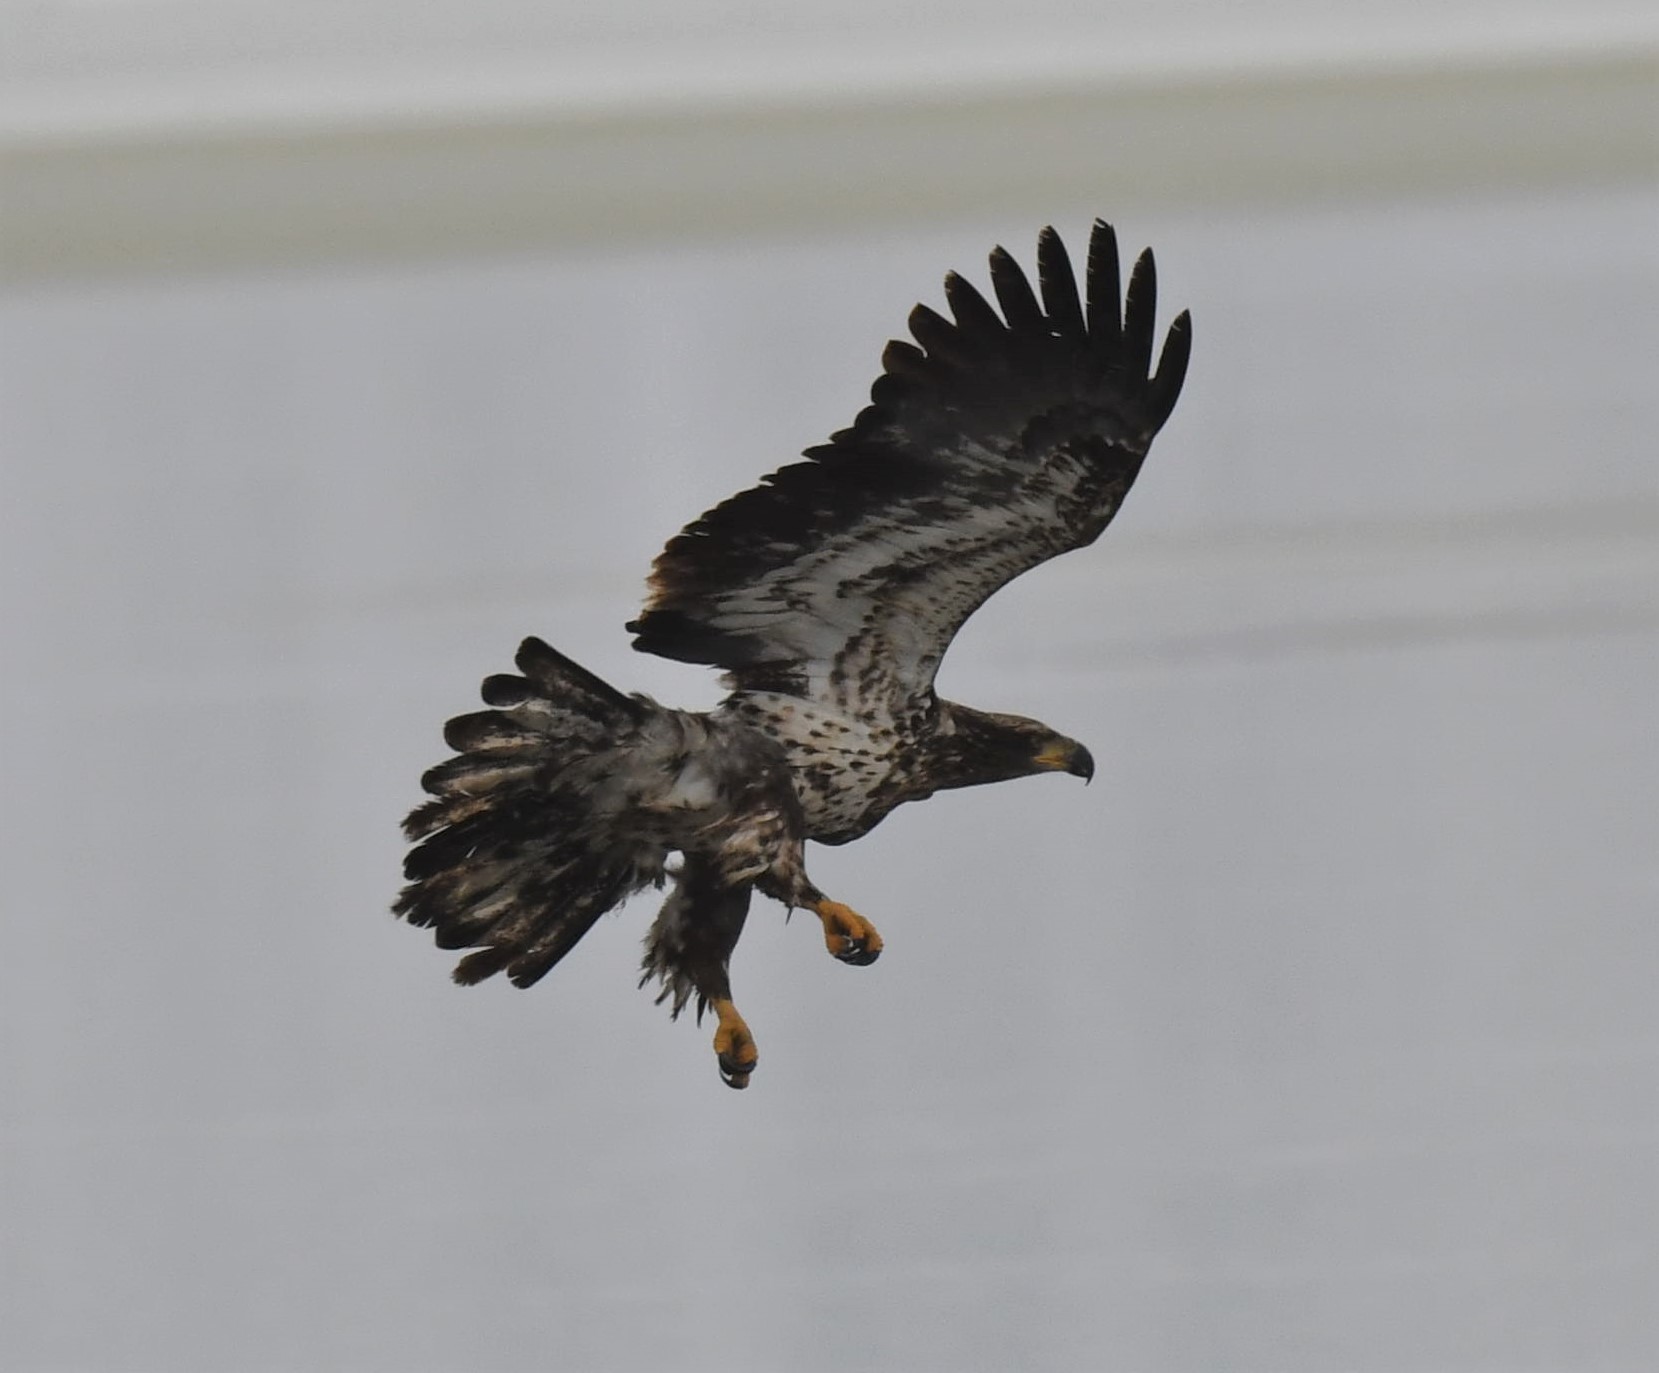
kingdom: Animalia
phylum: Chordata
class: Aves
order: Accipitriformes
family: Accipitridae
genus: Haliaeetus
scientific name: Haliaeetus leucocephalus
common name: Bald eagle
